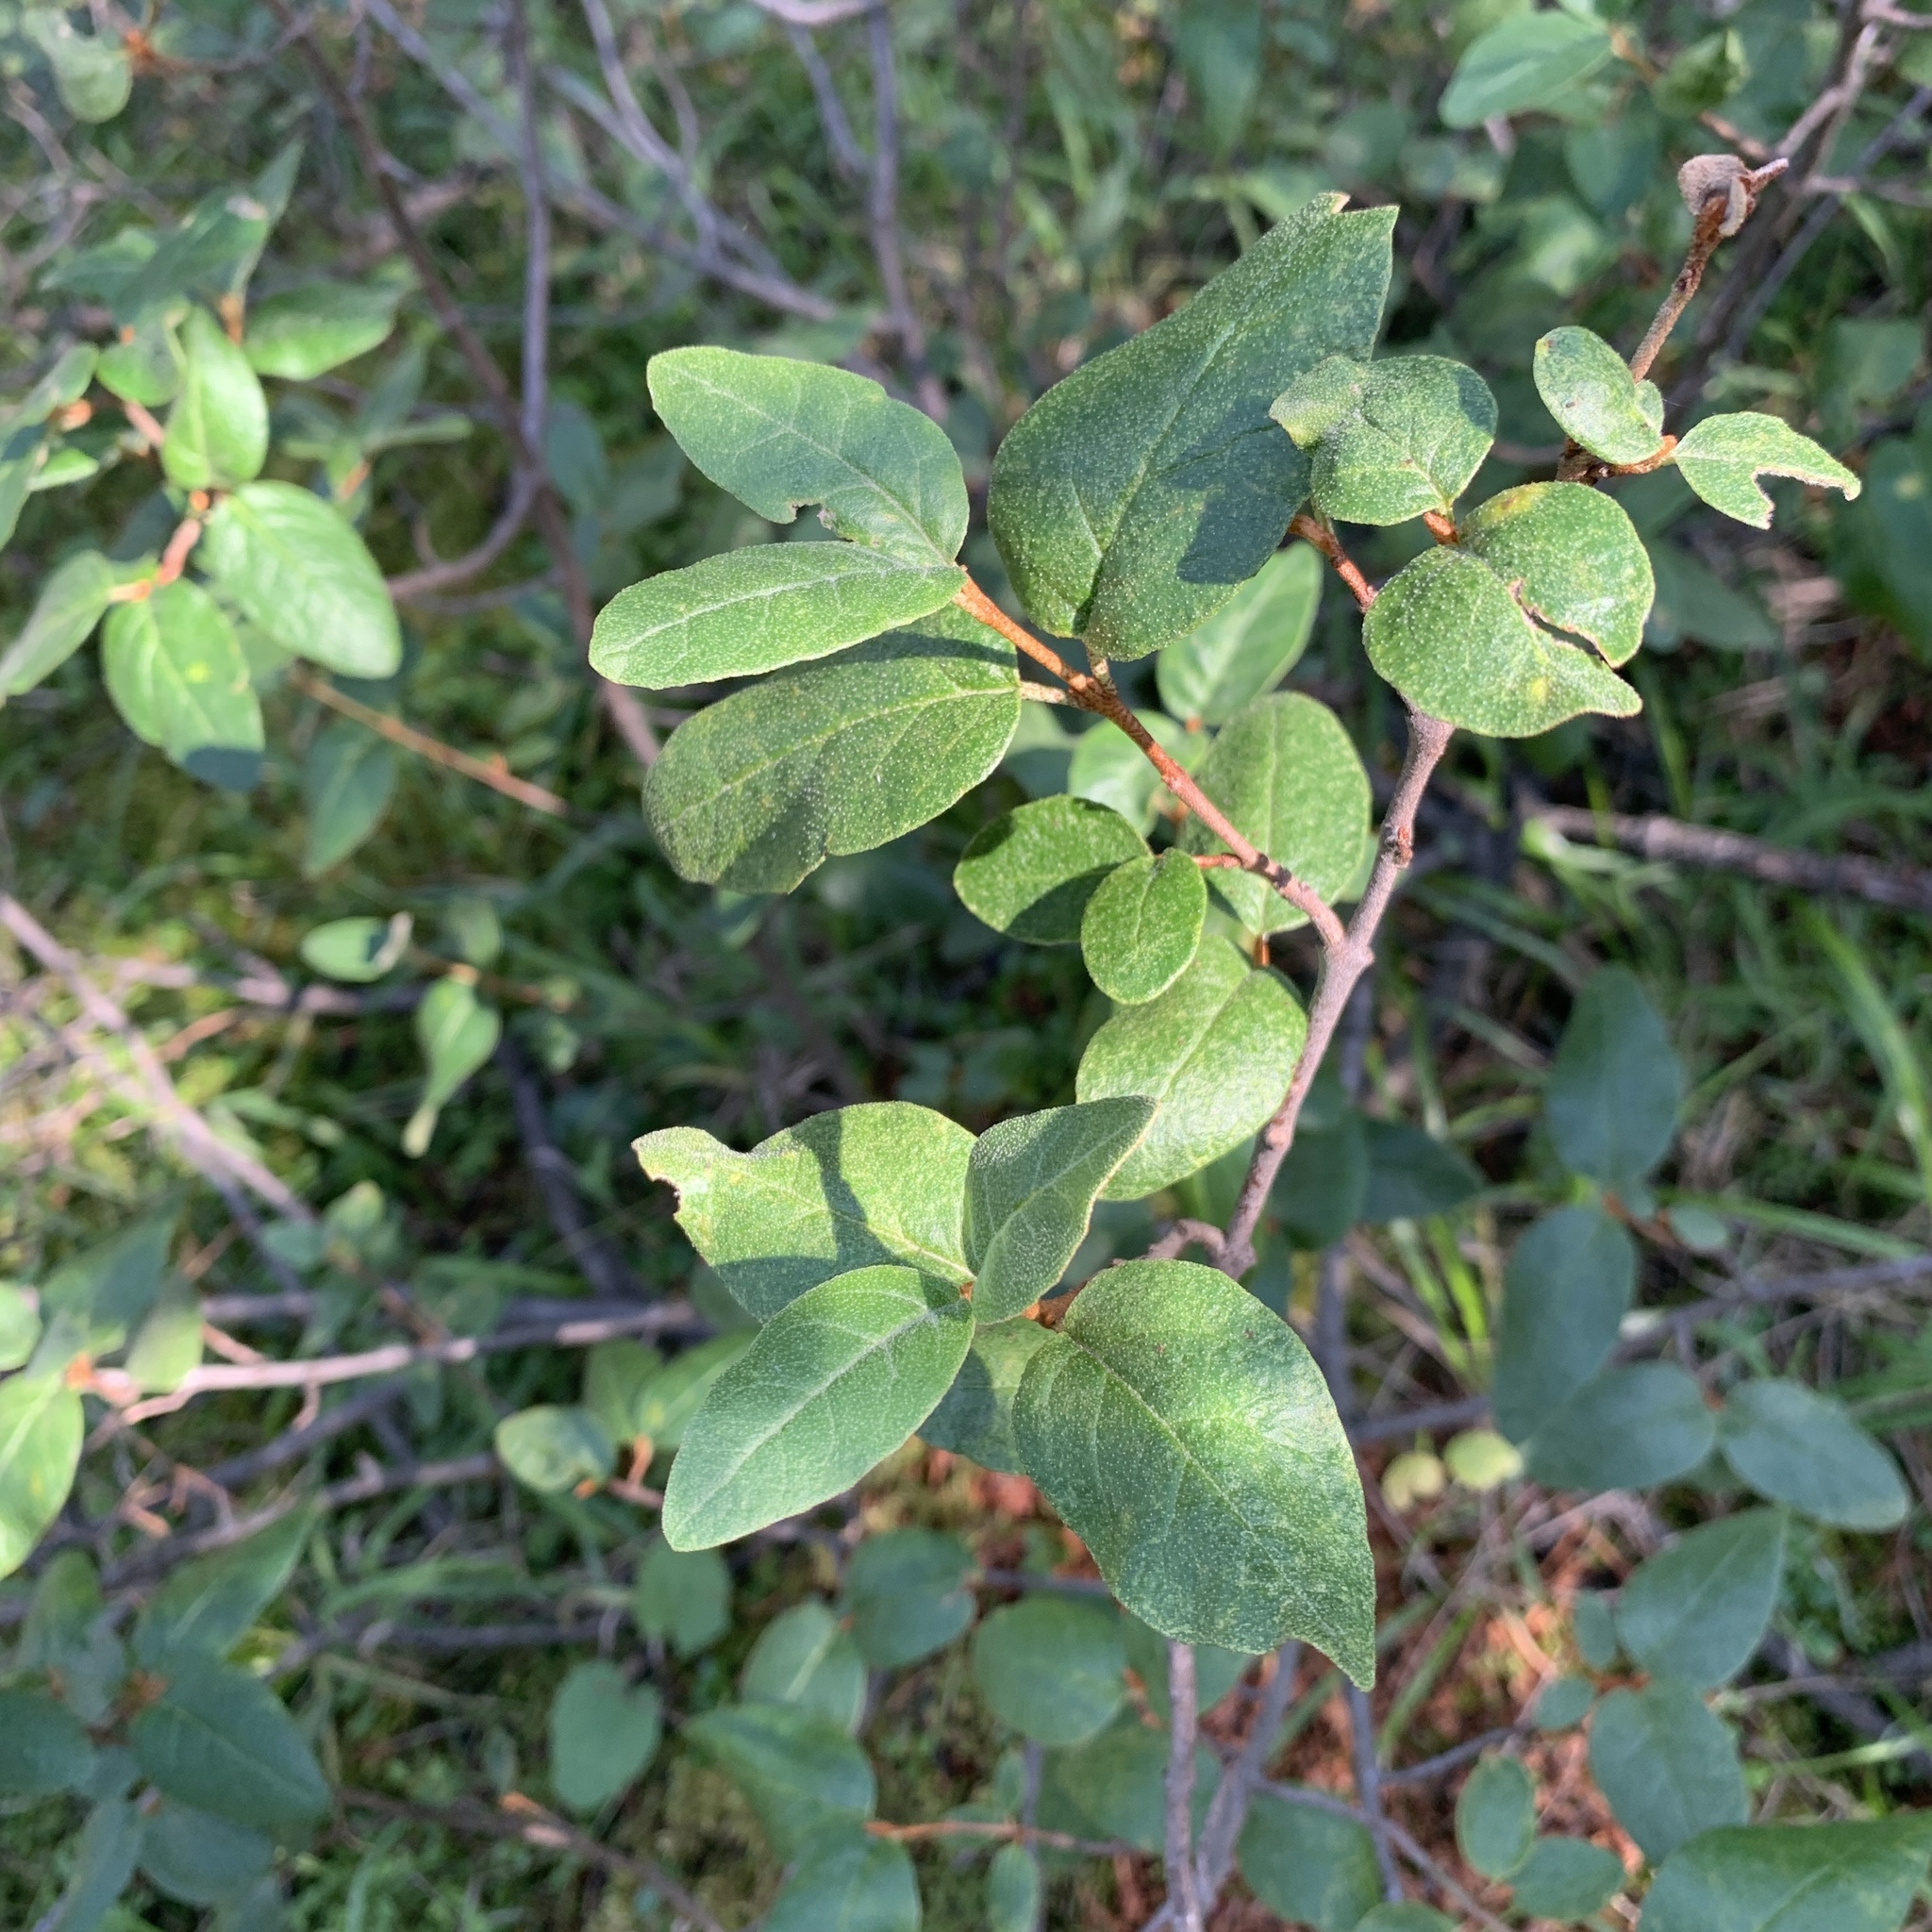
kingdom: Plantae
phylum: Tracheophyta
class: Magnoliopsida
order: Rosales
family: Elaeagnaceae
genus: Shepherdia
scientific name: Shepherdia canadensis
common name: Soapberry
